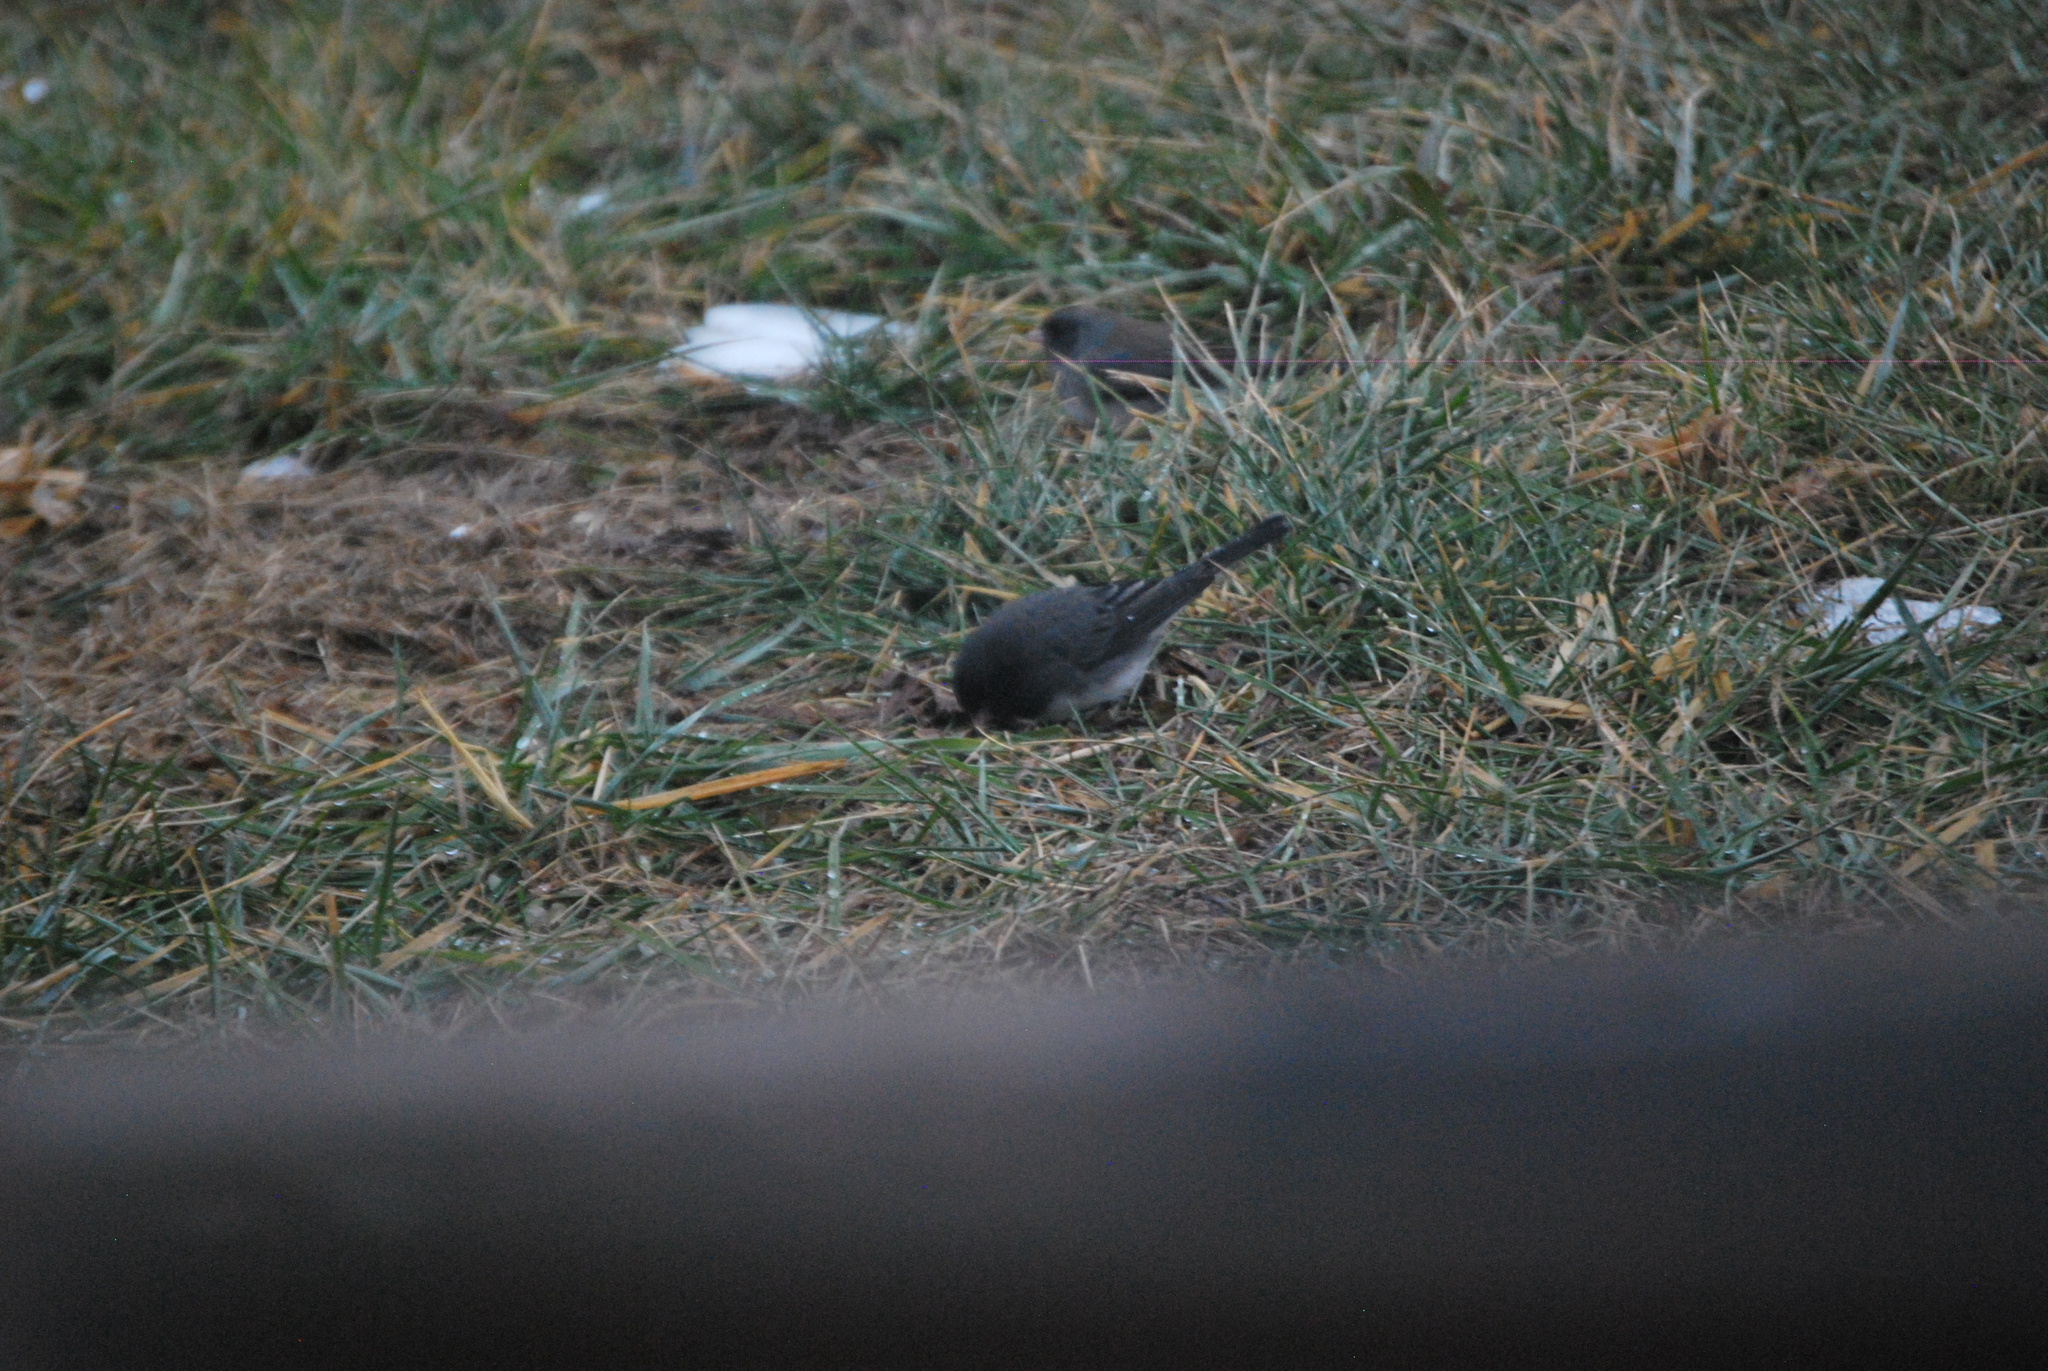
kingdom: Animalia
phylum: Chordata
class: Aves
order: Passeriformes
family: Passerellidae
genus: Junco
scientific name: Junco hyemalis
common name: Dark-eyed junco
